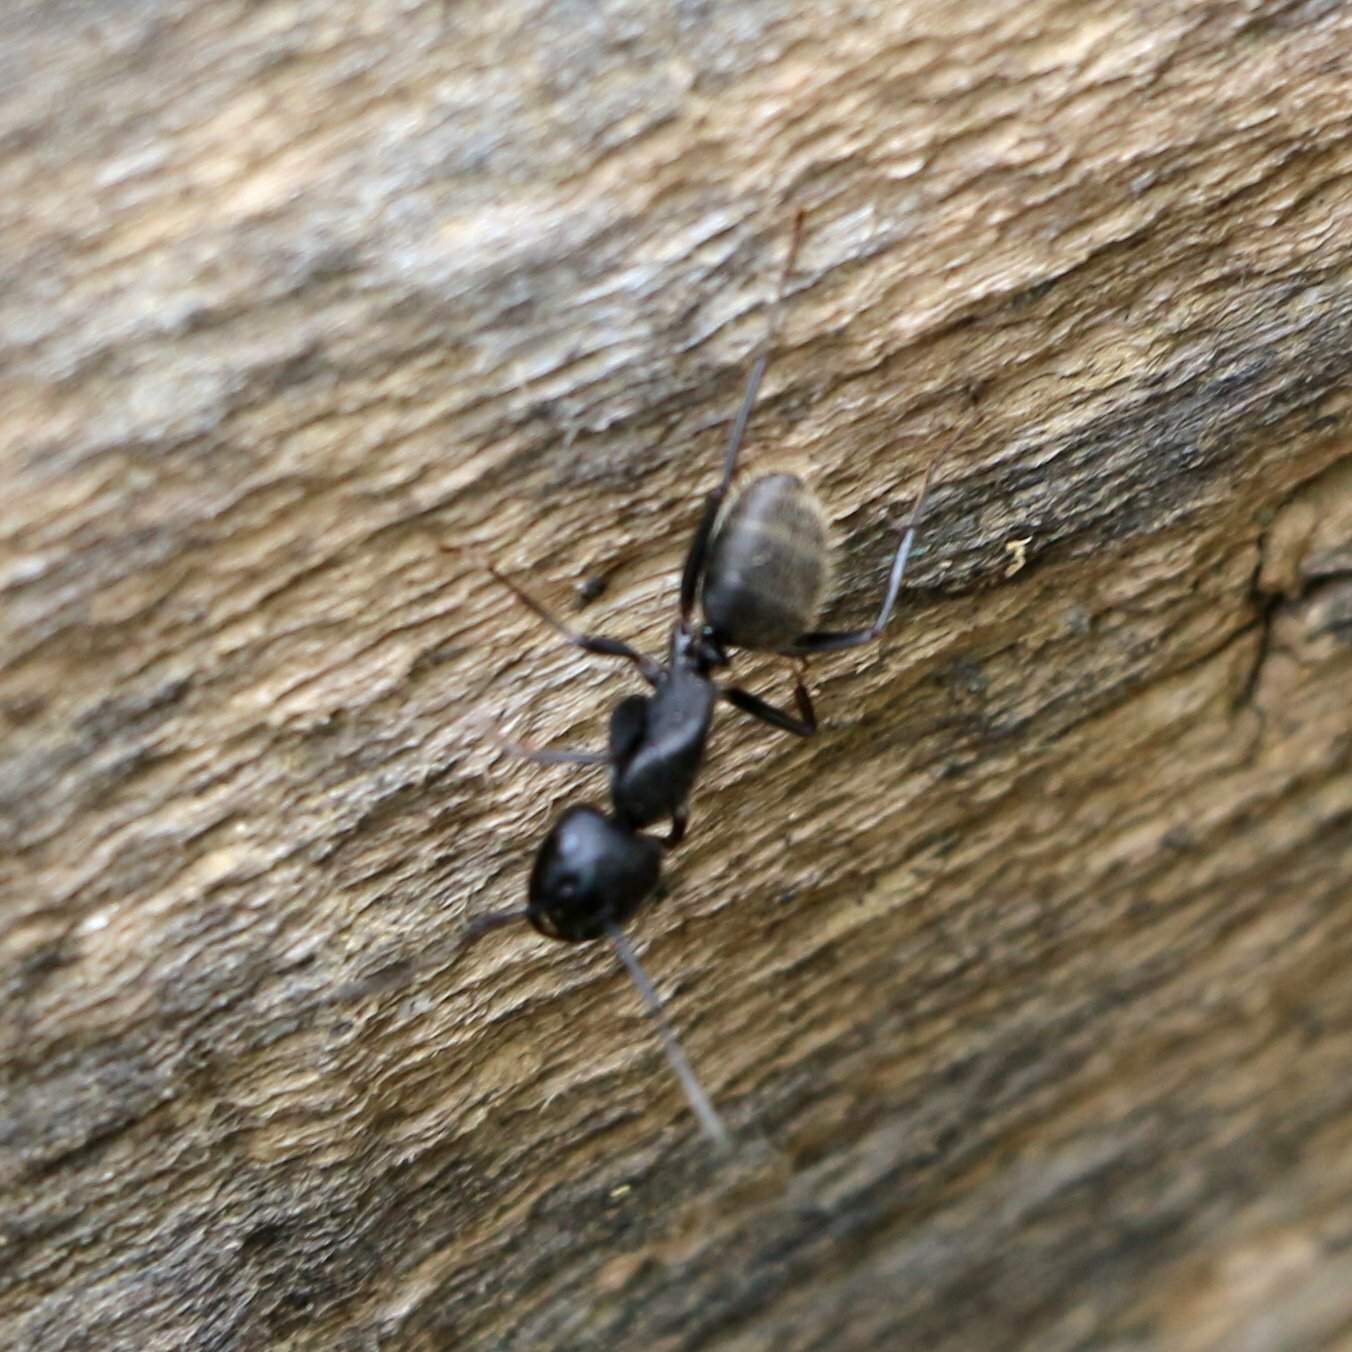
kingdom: Animalia
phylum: Arthropoda
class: Insecta
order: Hymenoptera
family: Formicidae
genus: Camponotus
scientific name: Camponotus vagus
